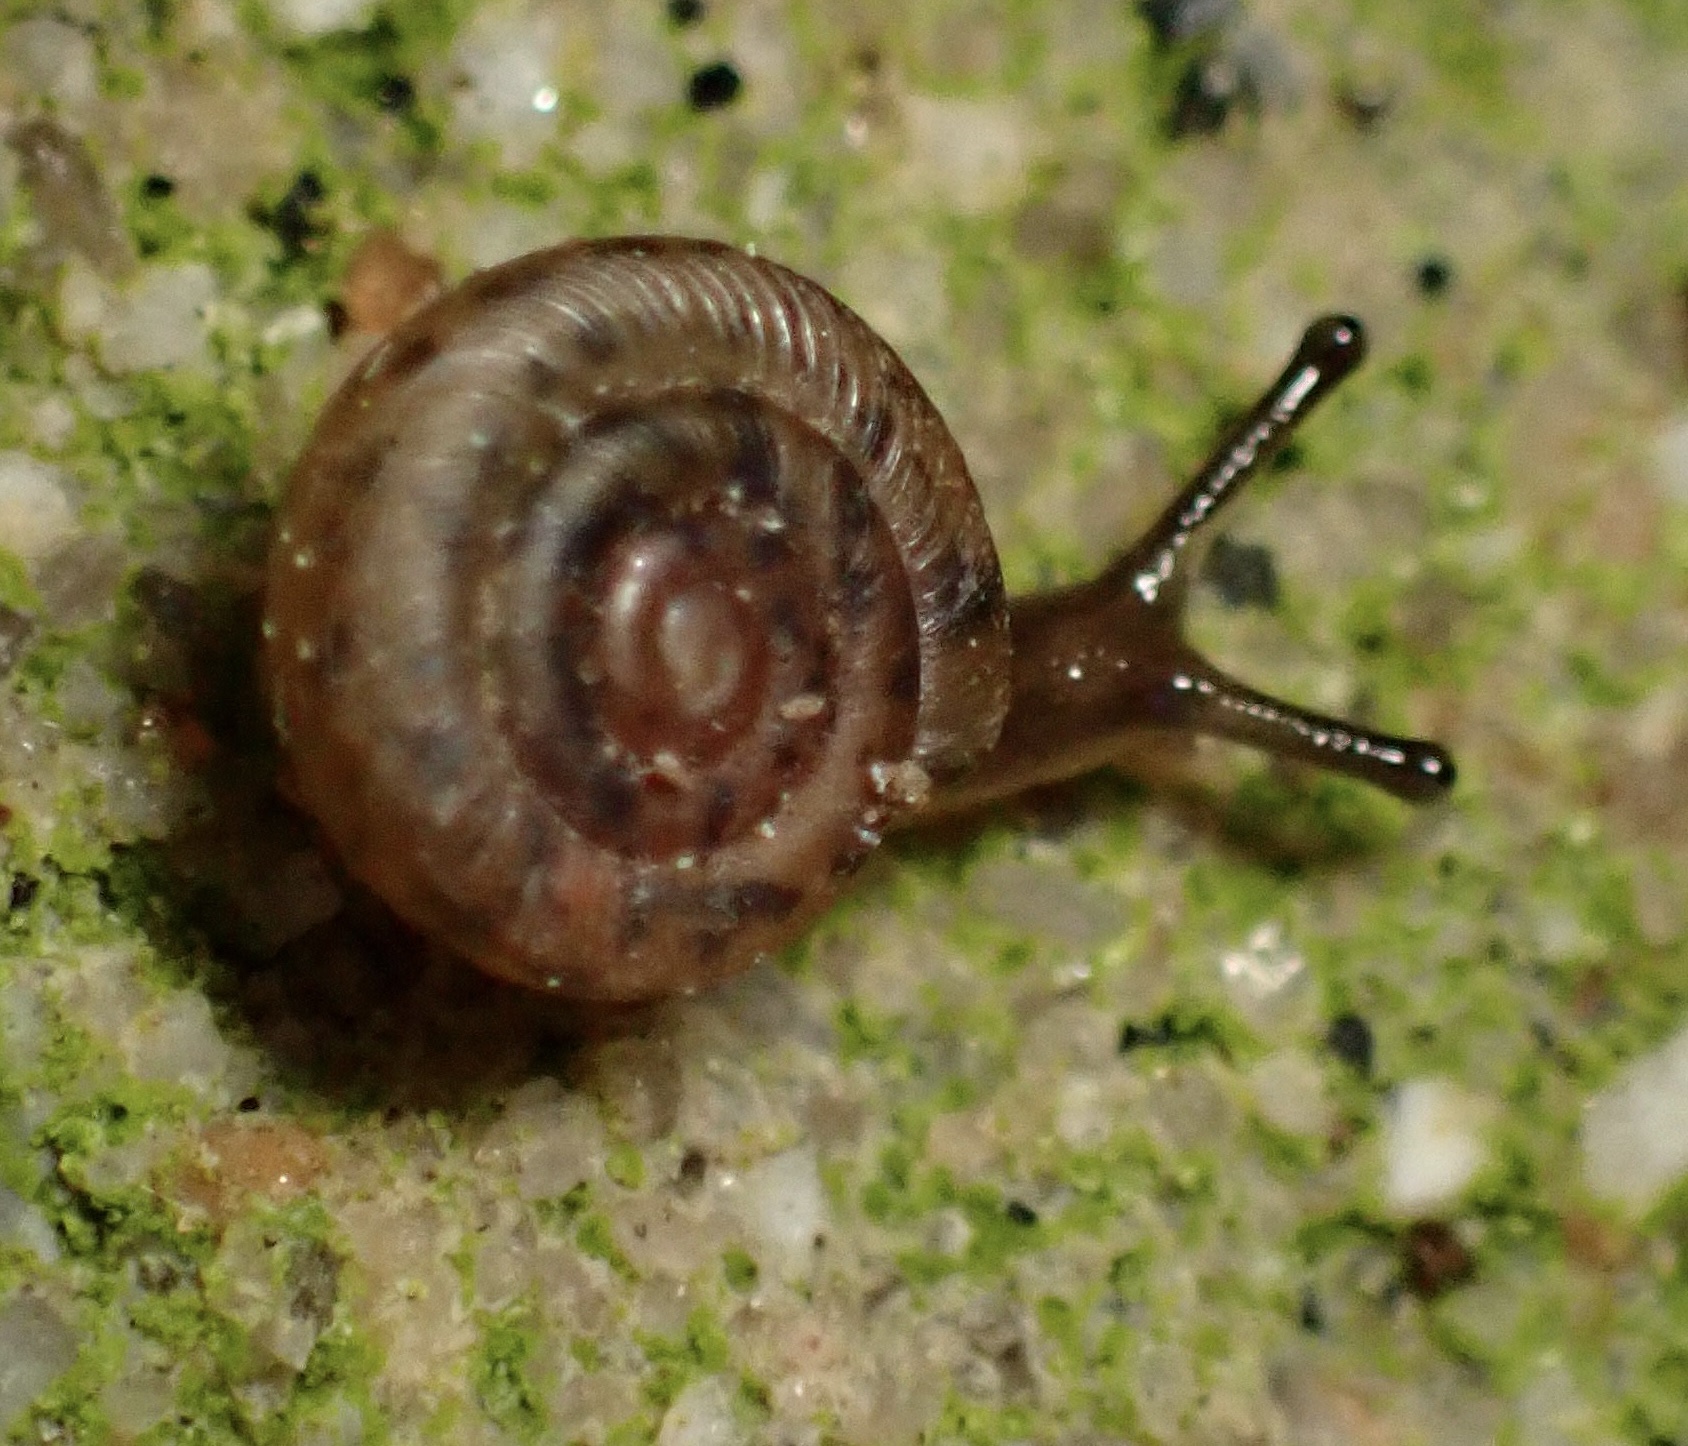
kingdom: Animalia
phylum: Mollusca
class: Gastropoda
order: Stylommatophora
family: Polygyridae
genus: Polygyra
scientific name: Polygyra cereolus
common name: Southern flatcone snail
